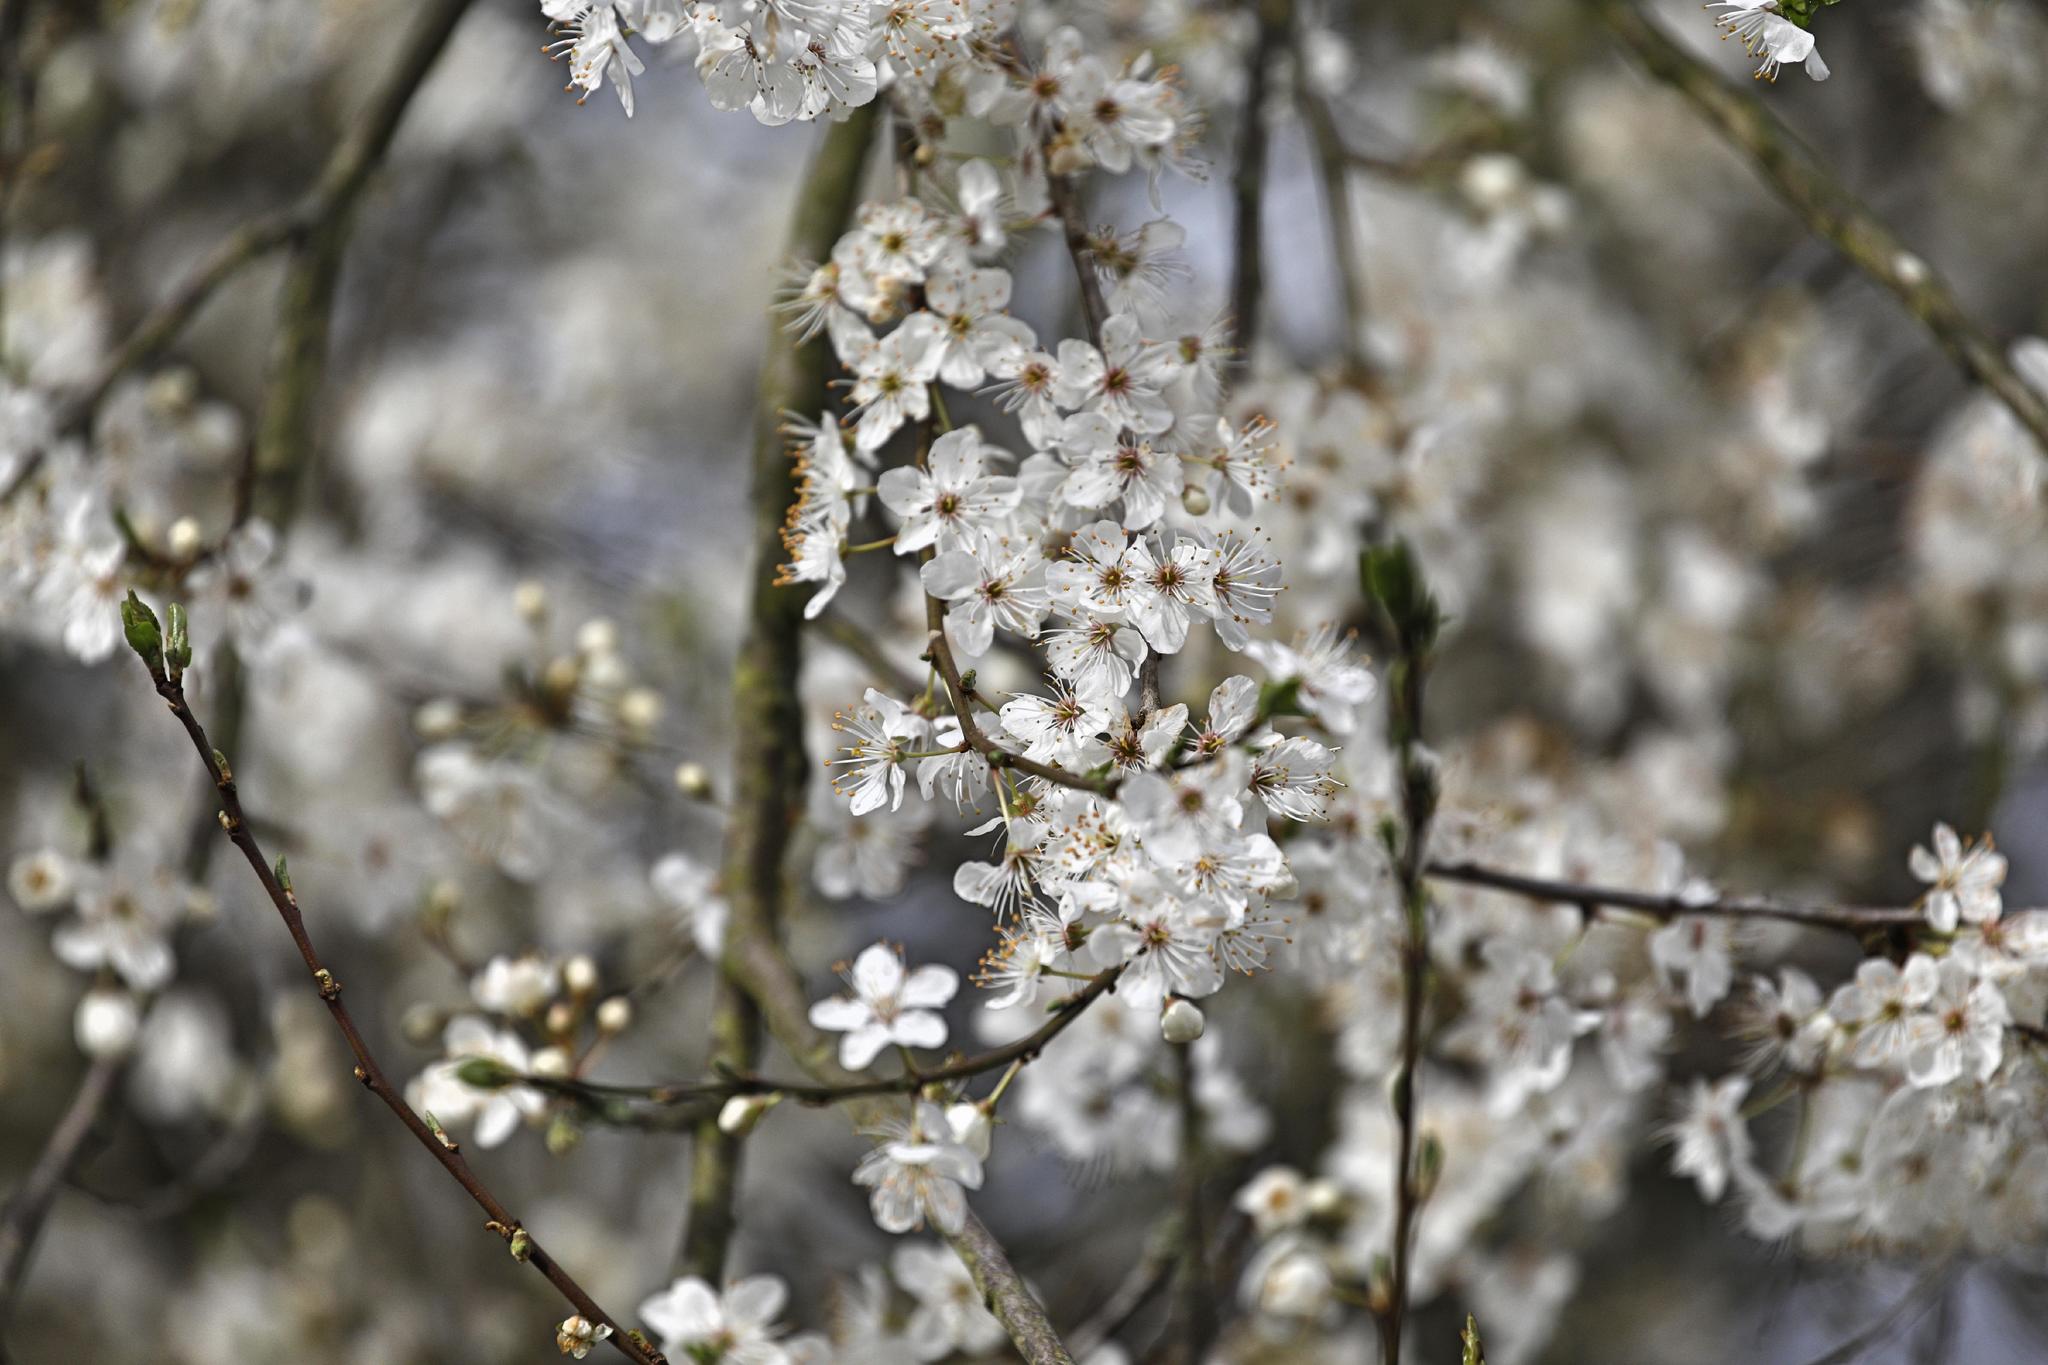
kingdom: Plantae
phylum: Tracheophyta
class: Magnoliopsida
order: Rosales
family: Rosaceae
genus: Prunus
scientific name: Prunus spinosa
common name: Blackthorn
